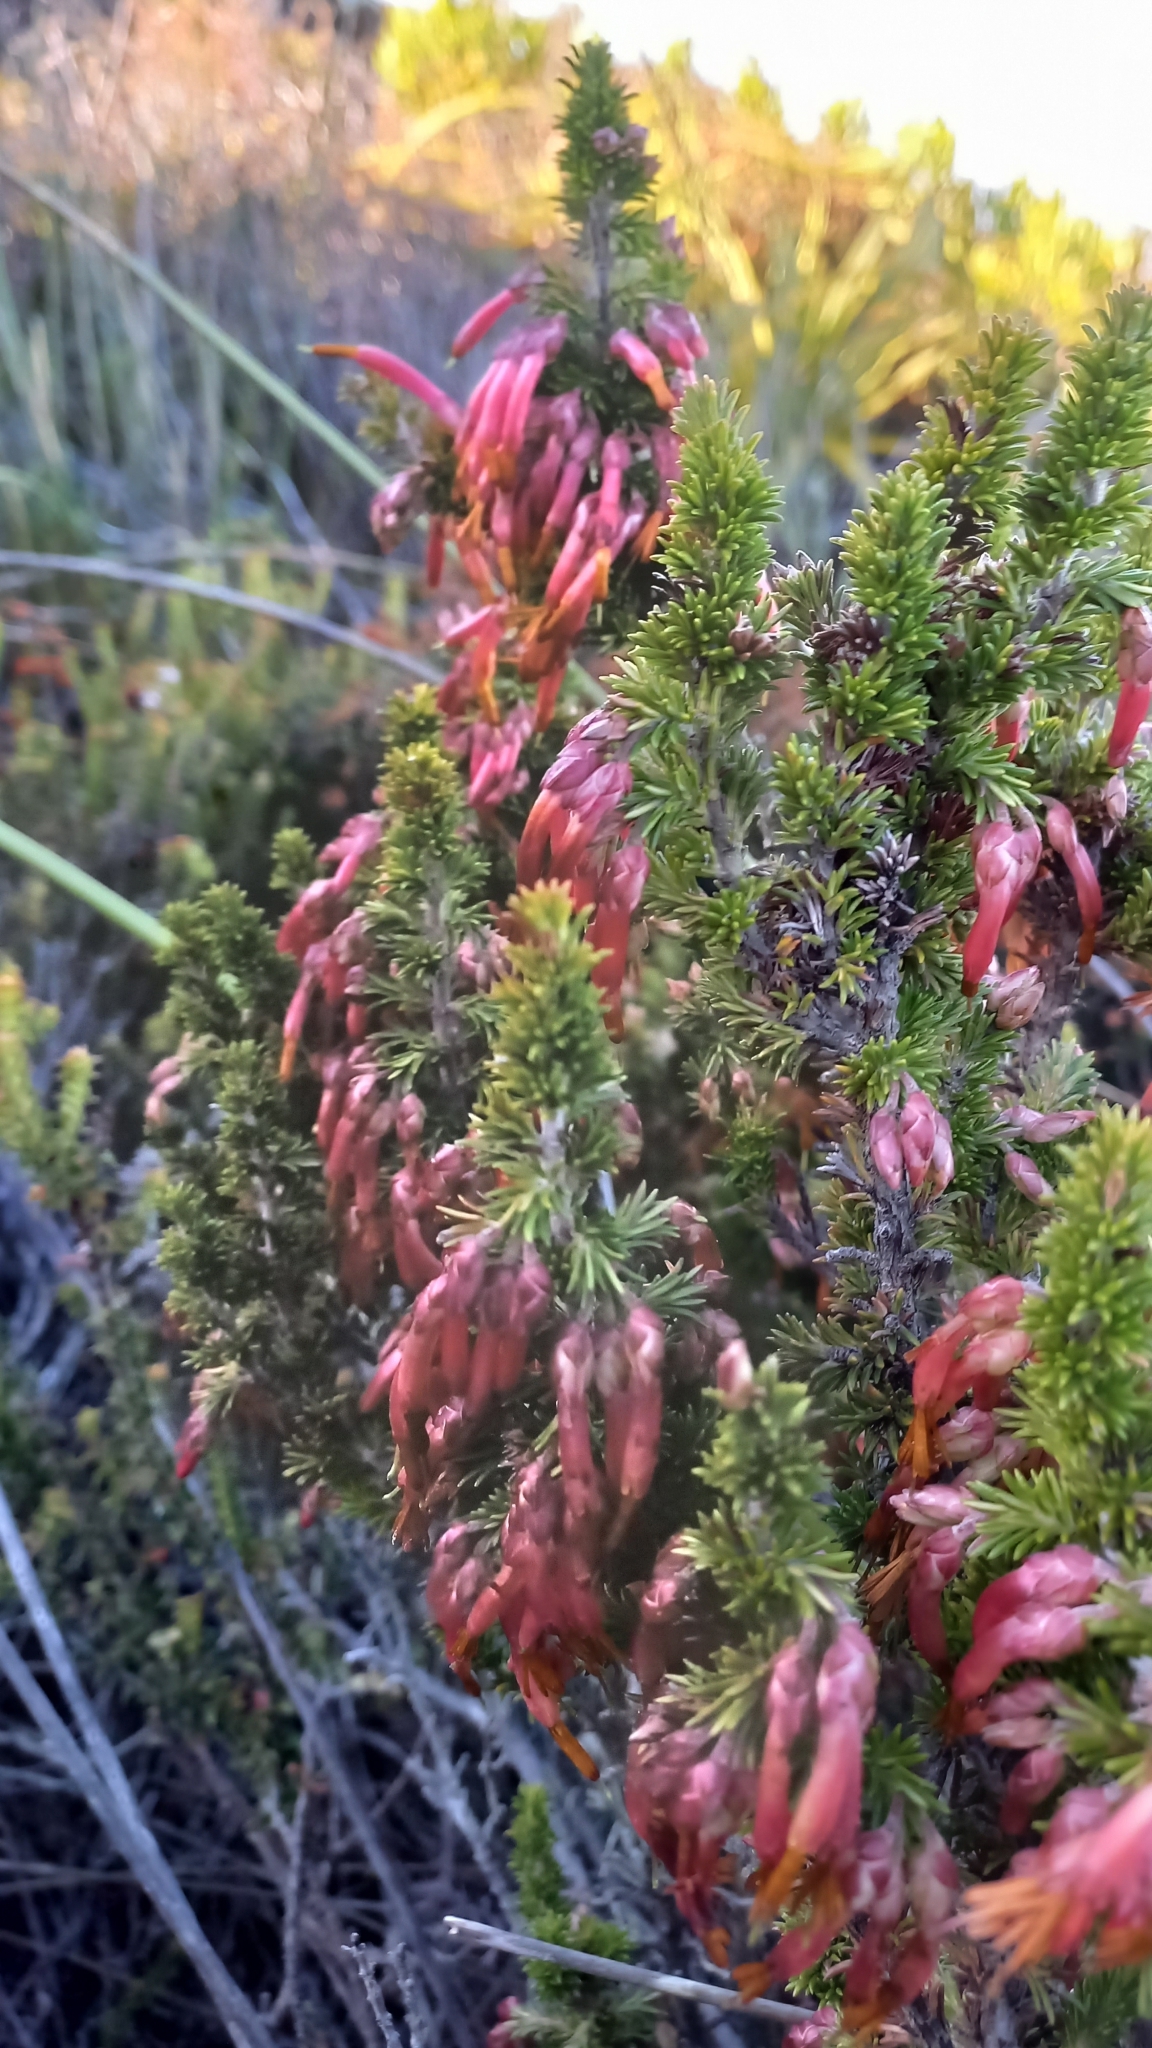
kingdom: Plantae
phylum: Tracheophyta
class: Magnoliopsida
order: Ericales
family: Ericaceae
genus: Erica
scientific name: Erica coccinea
